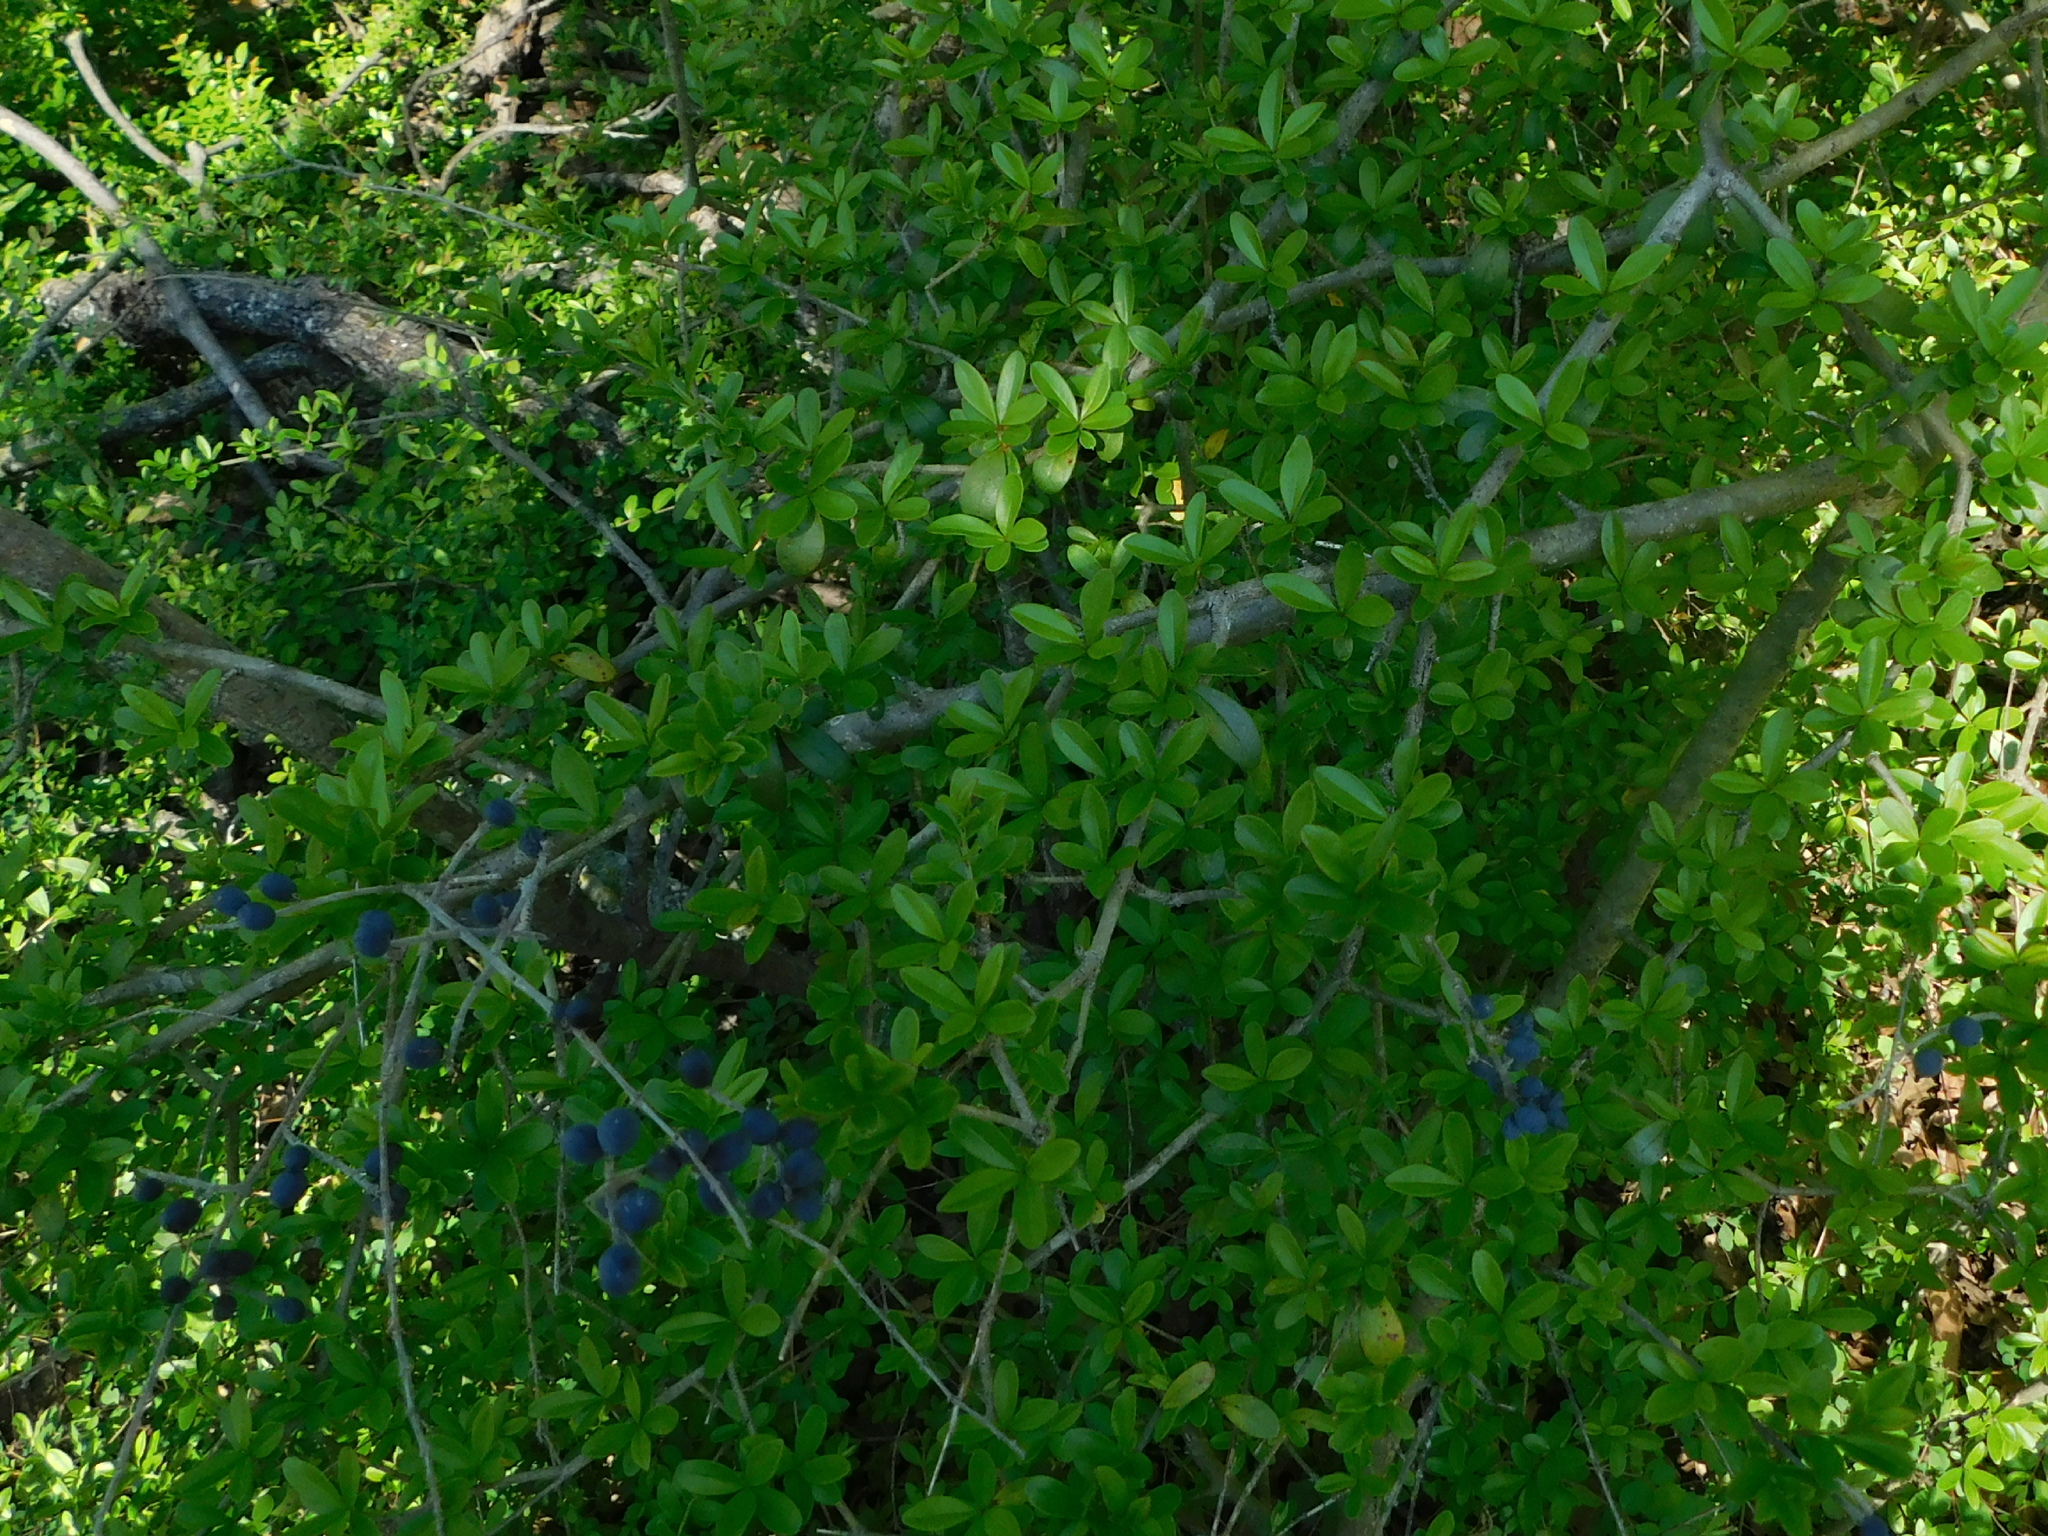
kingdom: Plantae
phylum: Tracheophyta
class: Magnoliopsida
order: Lamiales
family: Oleaceae
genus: Ligustrum
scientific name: Ligustrum quihoui
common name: Waxyleaf privet
